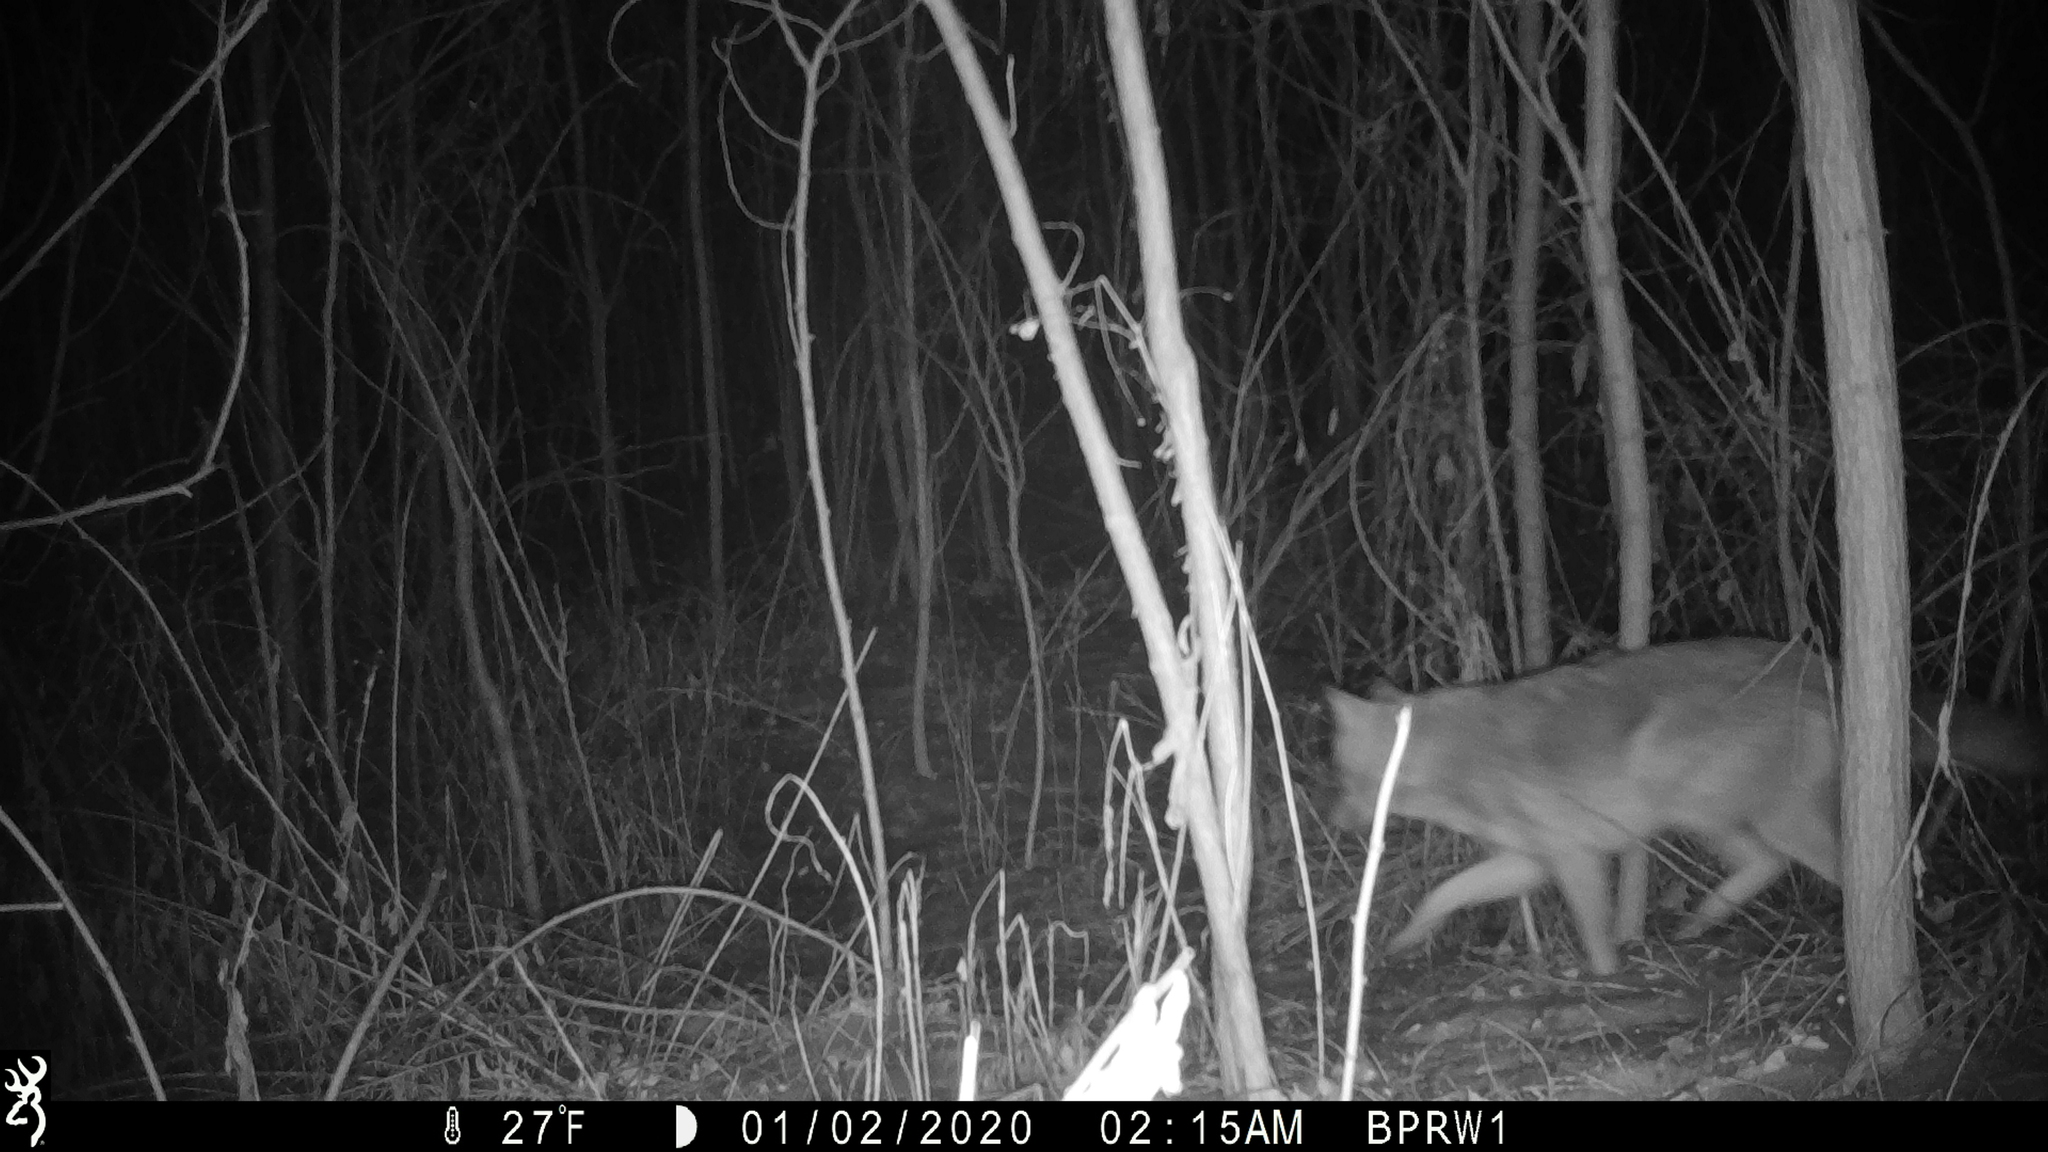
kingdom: Animalia
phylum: Chordata
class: Mammalia
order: Carnivora
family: Canidae
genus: Canis
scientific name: Canis latrans
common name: Coyote
